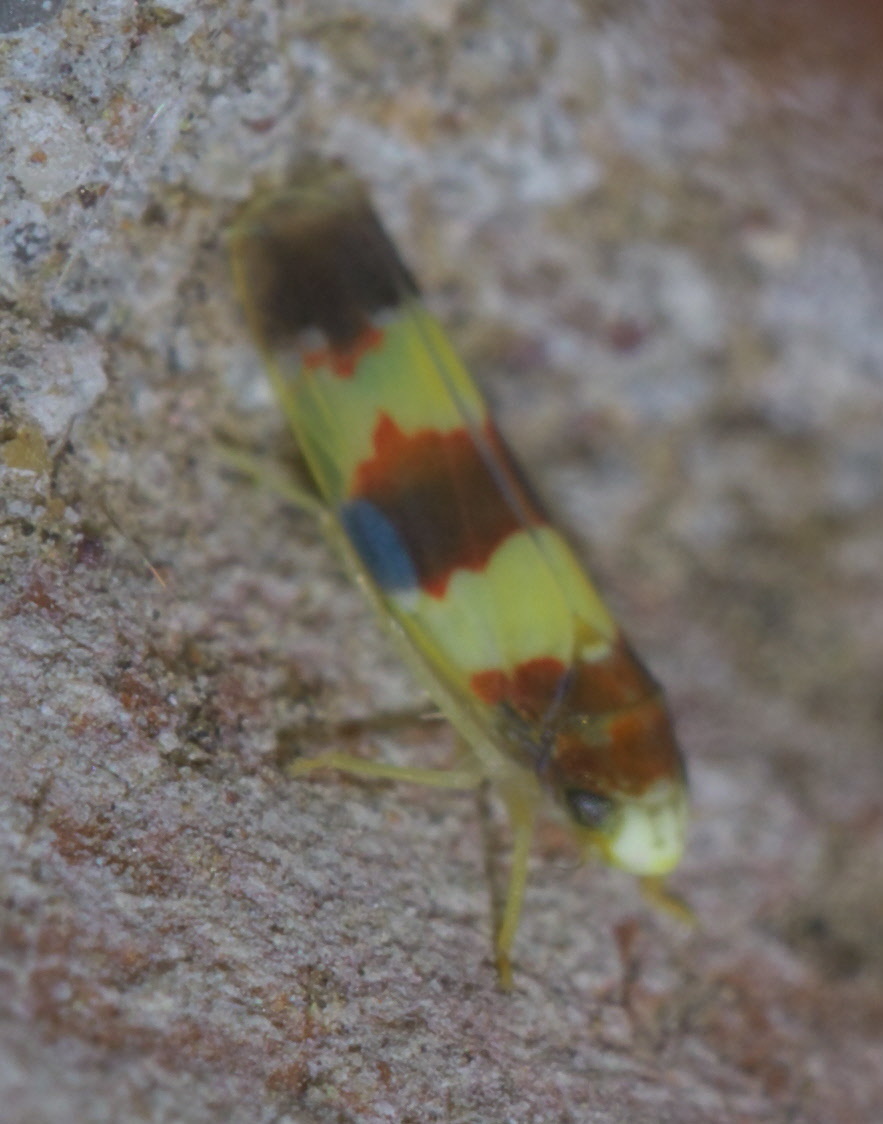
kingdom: Animalia
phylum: Arthropoda
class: Insecta
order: Hemiptera
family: Cicadellidae
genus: Erythroneura
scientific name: Erythroneura bistrata
